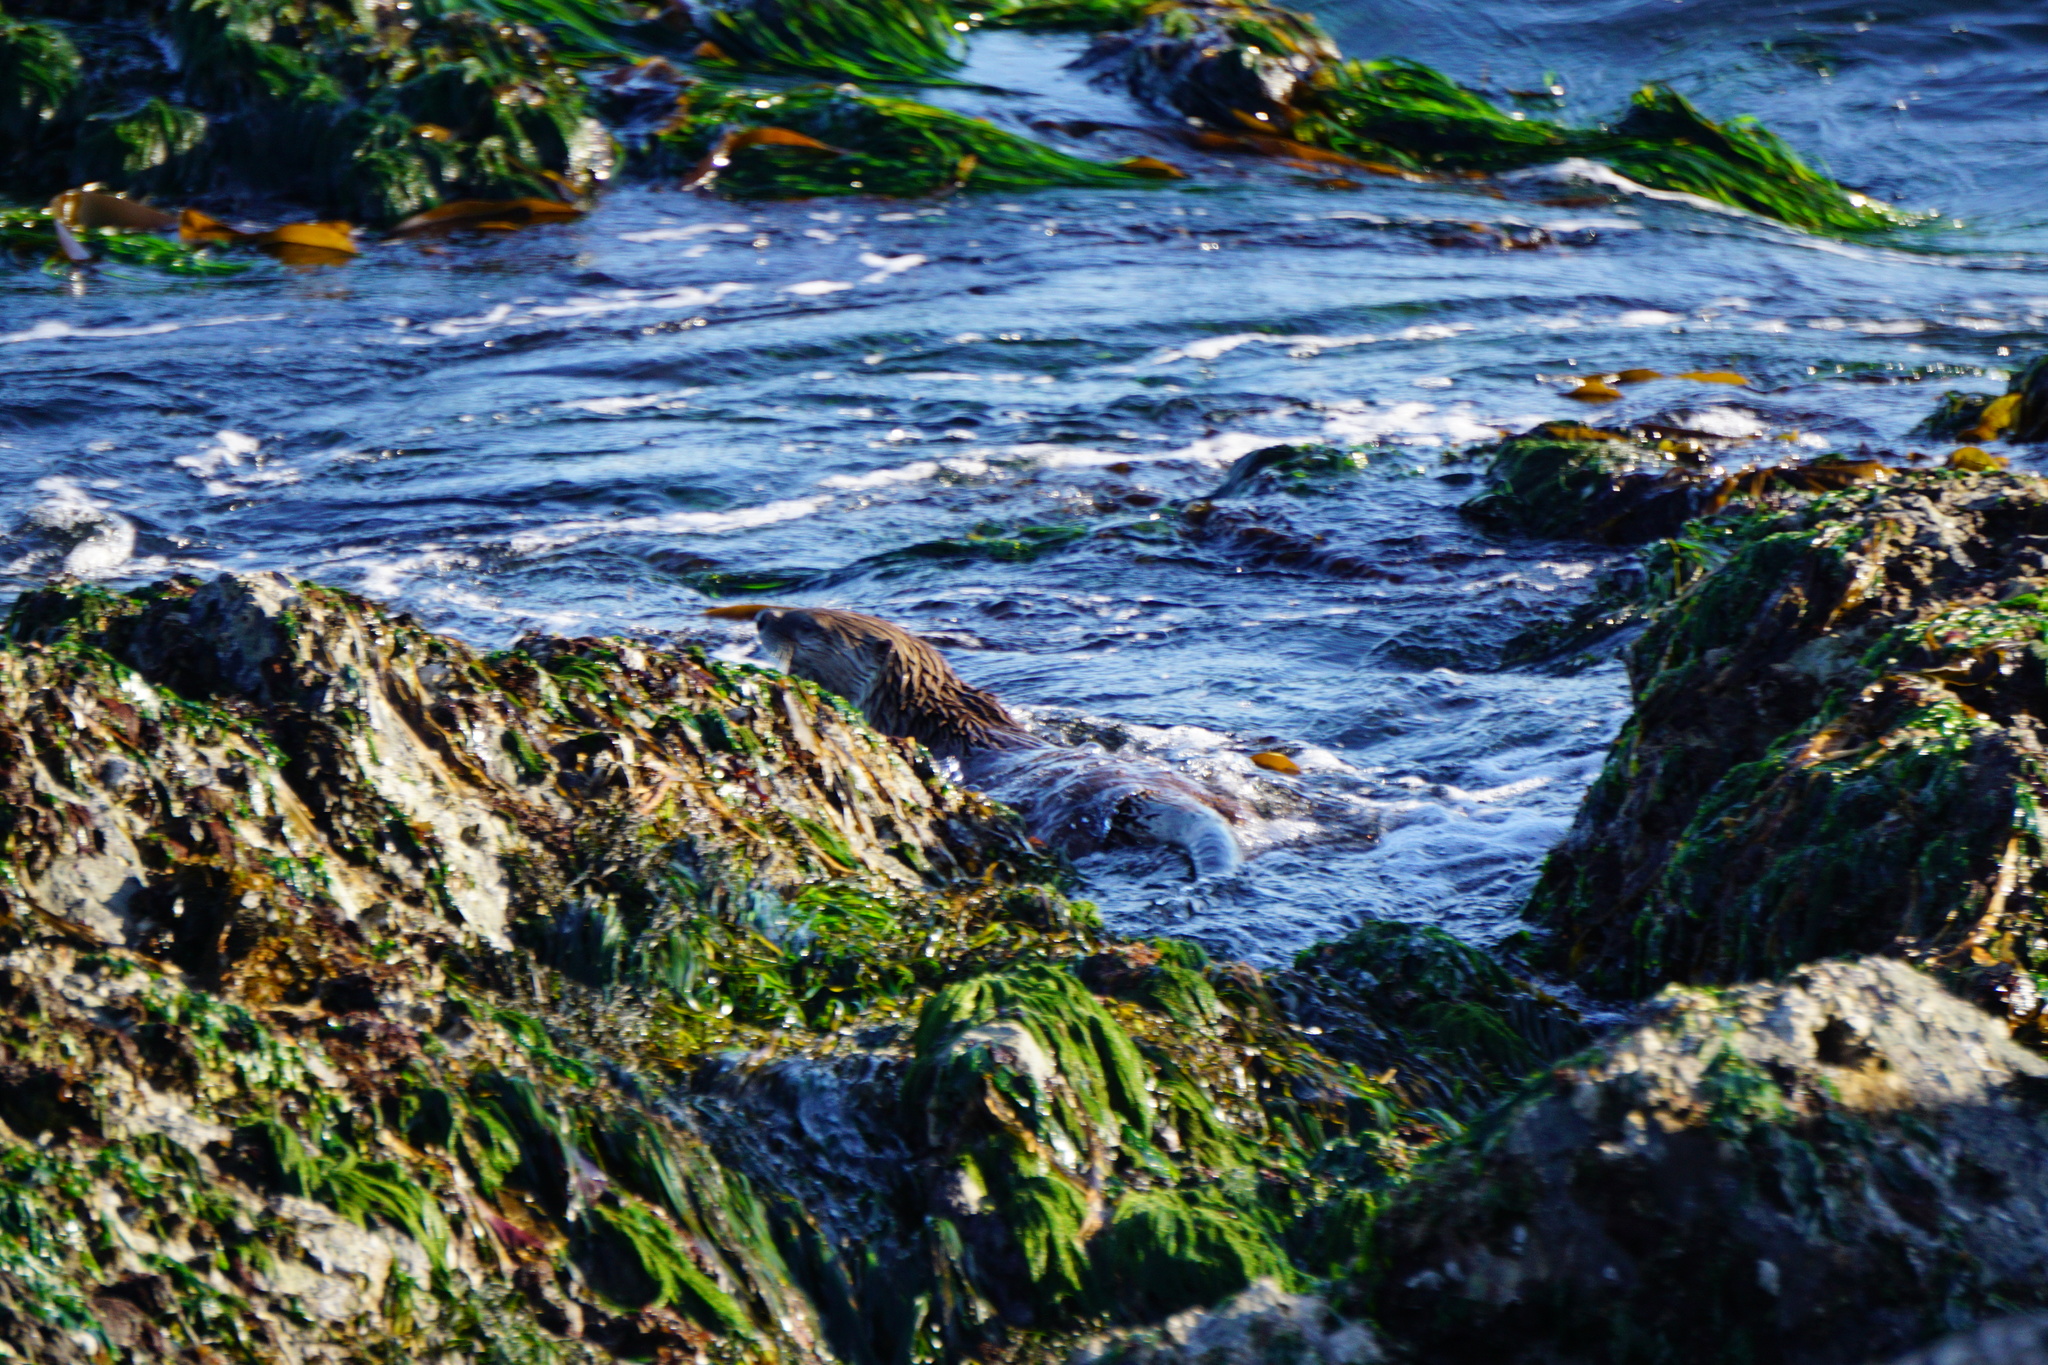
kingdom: Animalia
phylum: Chordata
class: Mammalia
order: Carnivora
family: Mustelidae
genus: Lontra
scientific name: Lontra canadensis
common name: North american river otter
